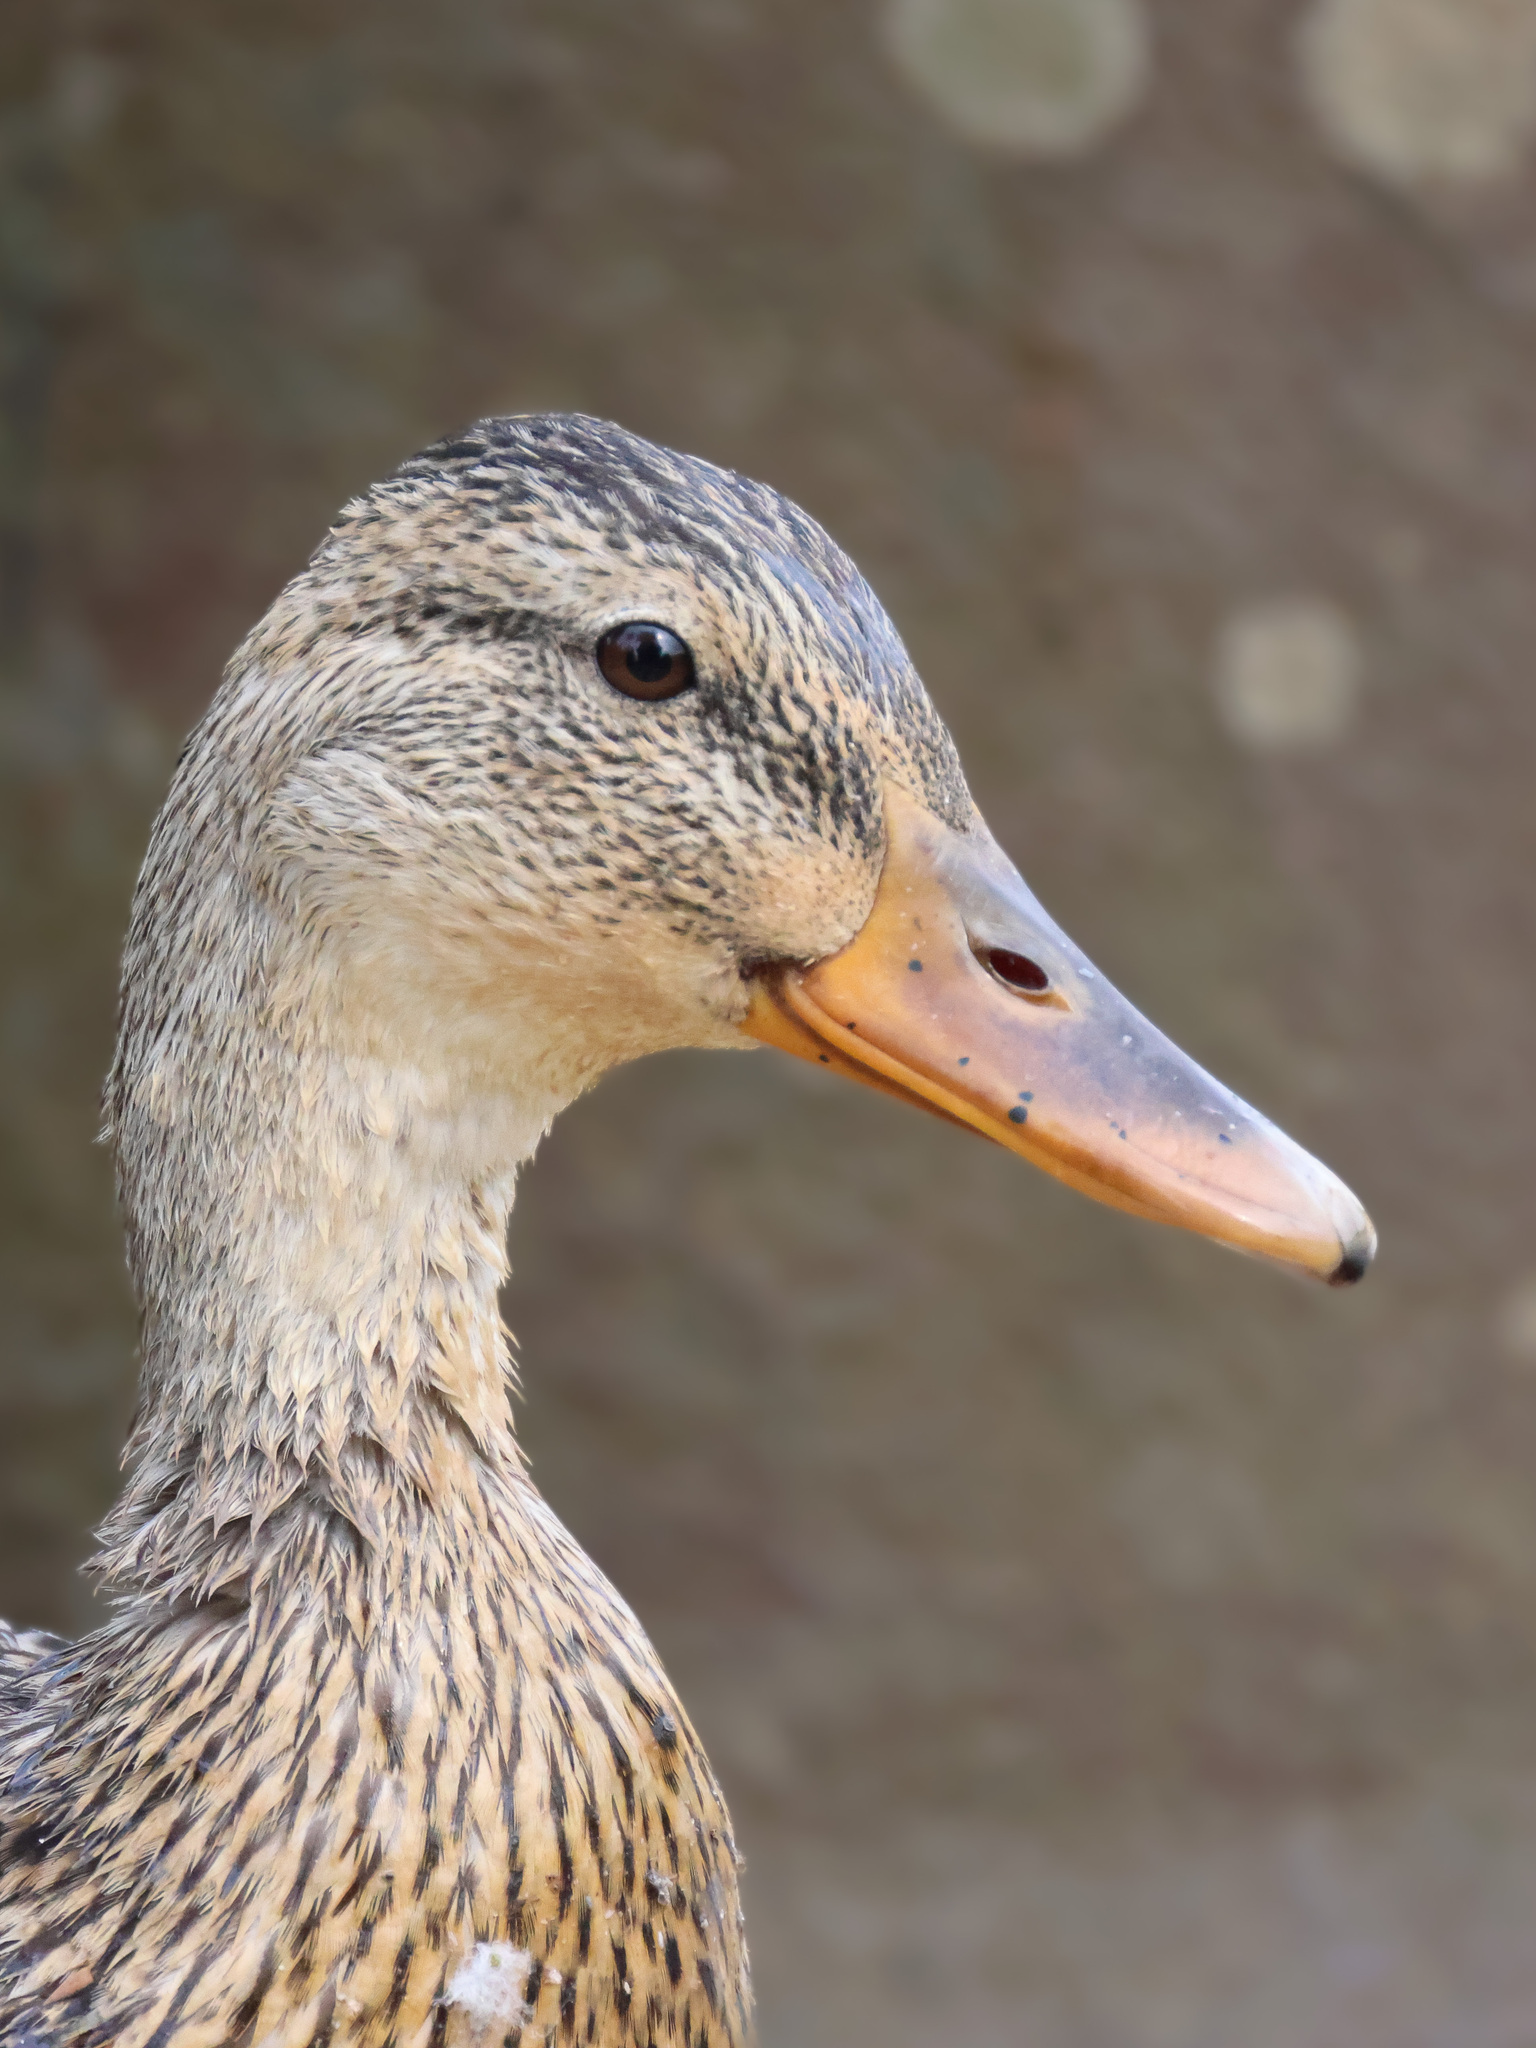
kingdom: Animalia
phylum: Chordata
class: Aves
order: Anseriformes
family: Anatidae
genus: Anas
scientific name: Anas platyrhynchos
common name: Mallard
